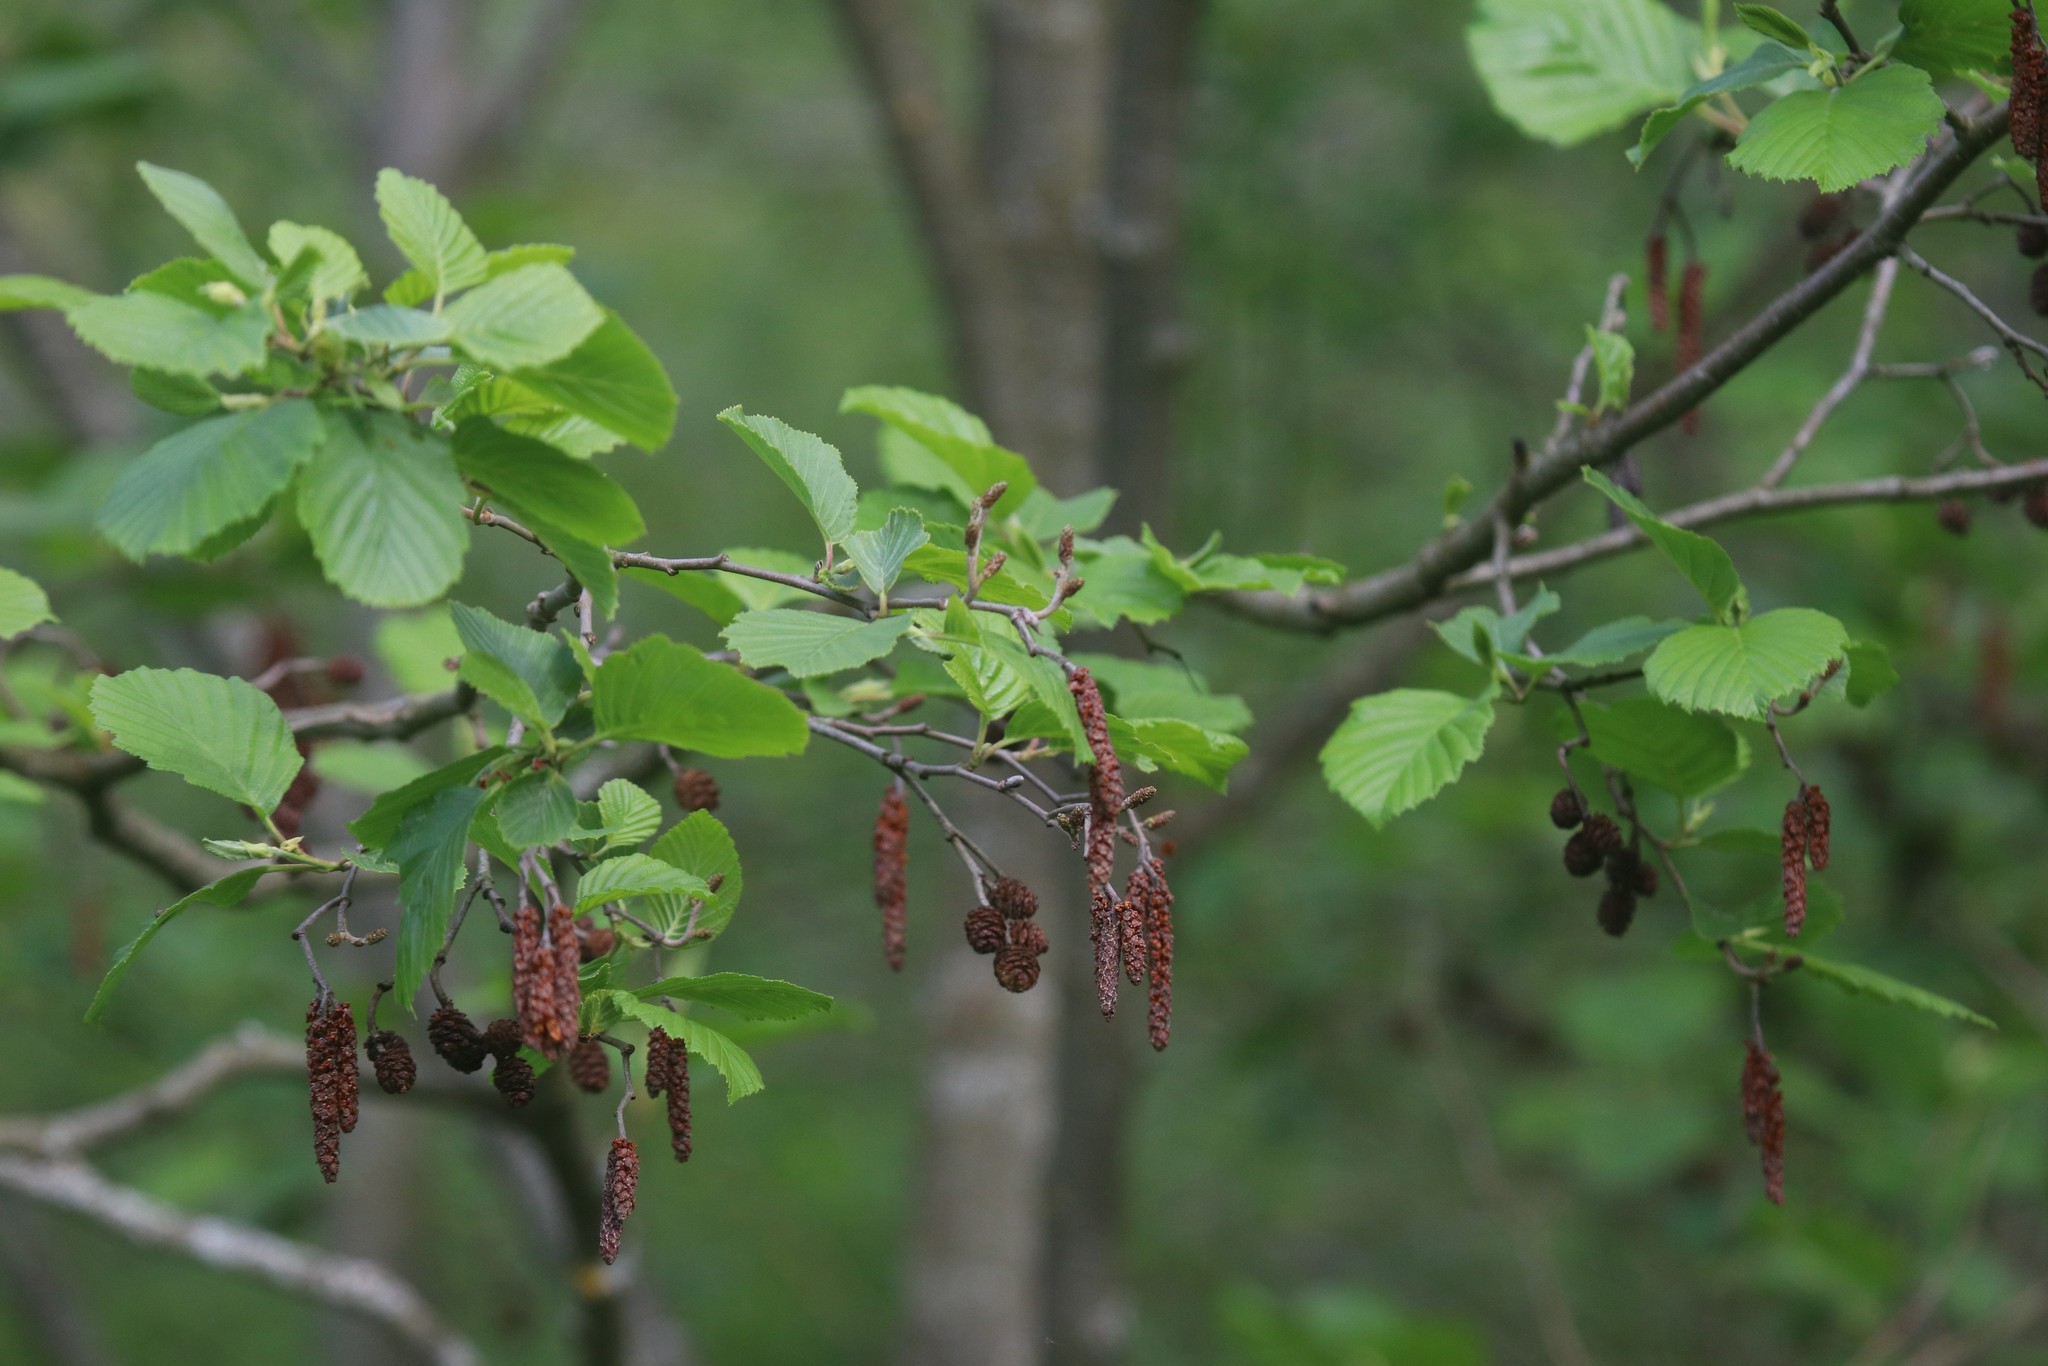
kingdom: Plantae
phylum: Tracheophyta
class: Magnoliopsida
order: Fagales
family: Betulaceae
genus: Alnus
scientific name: Alnus incana
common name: Grey alder
